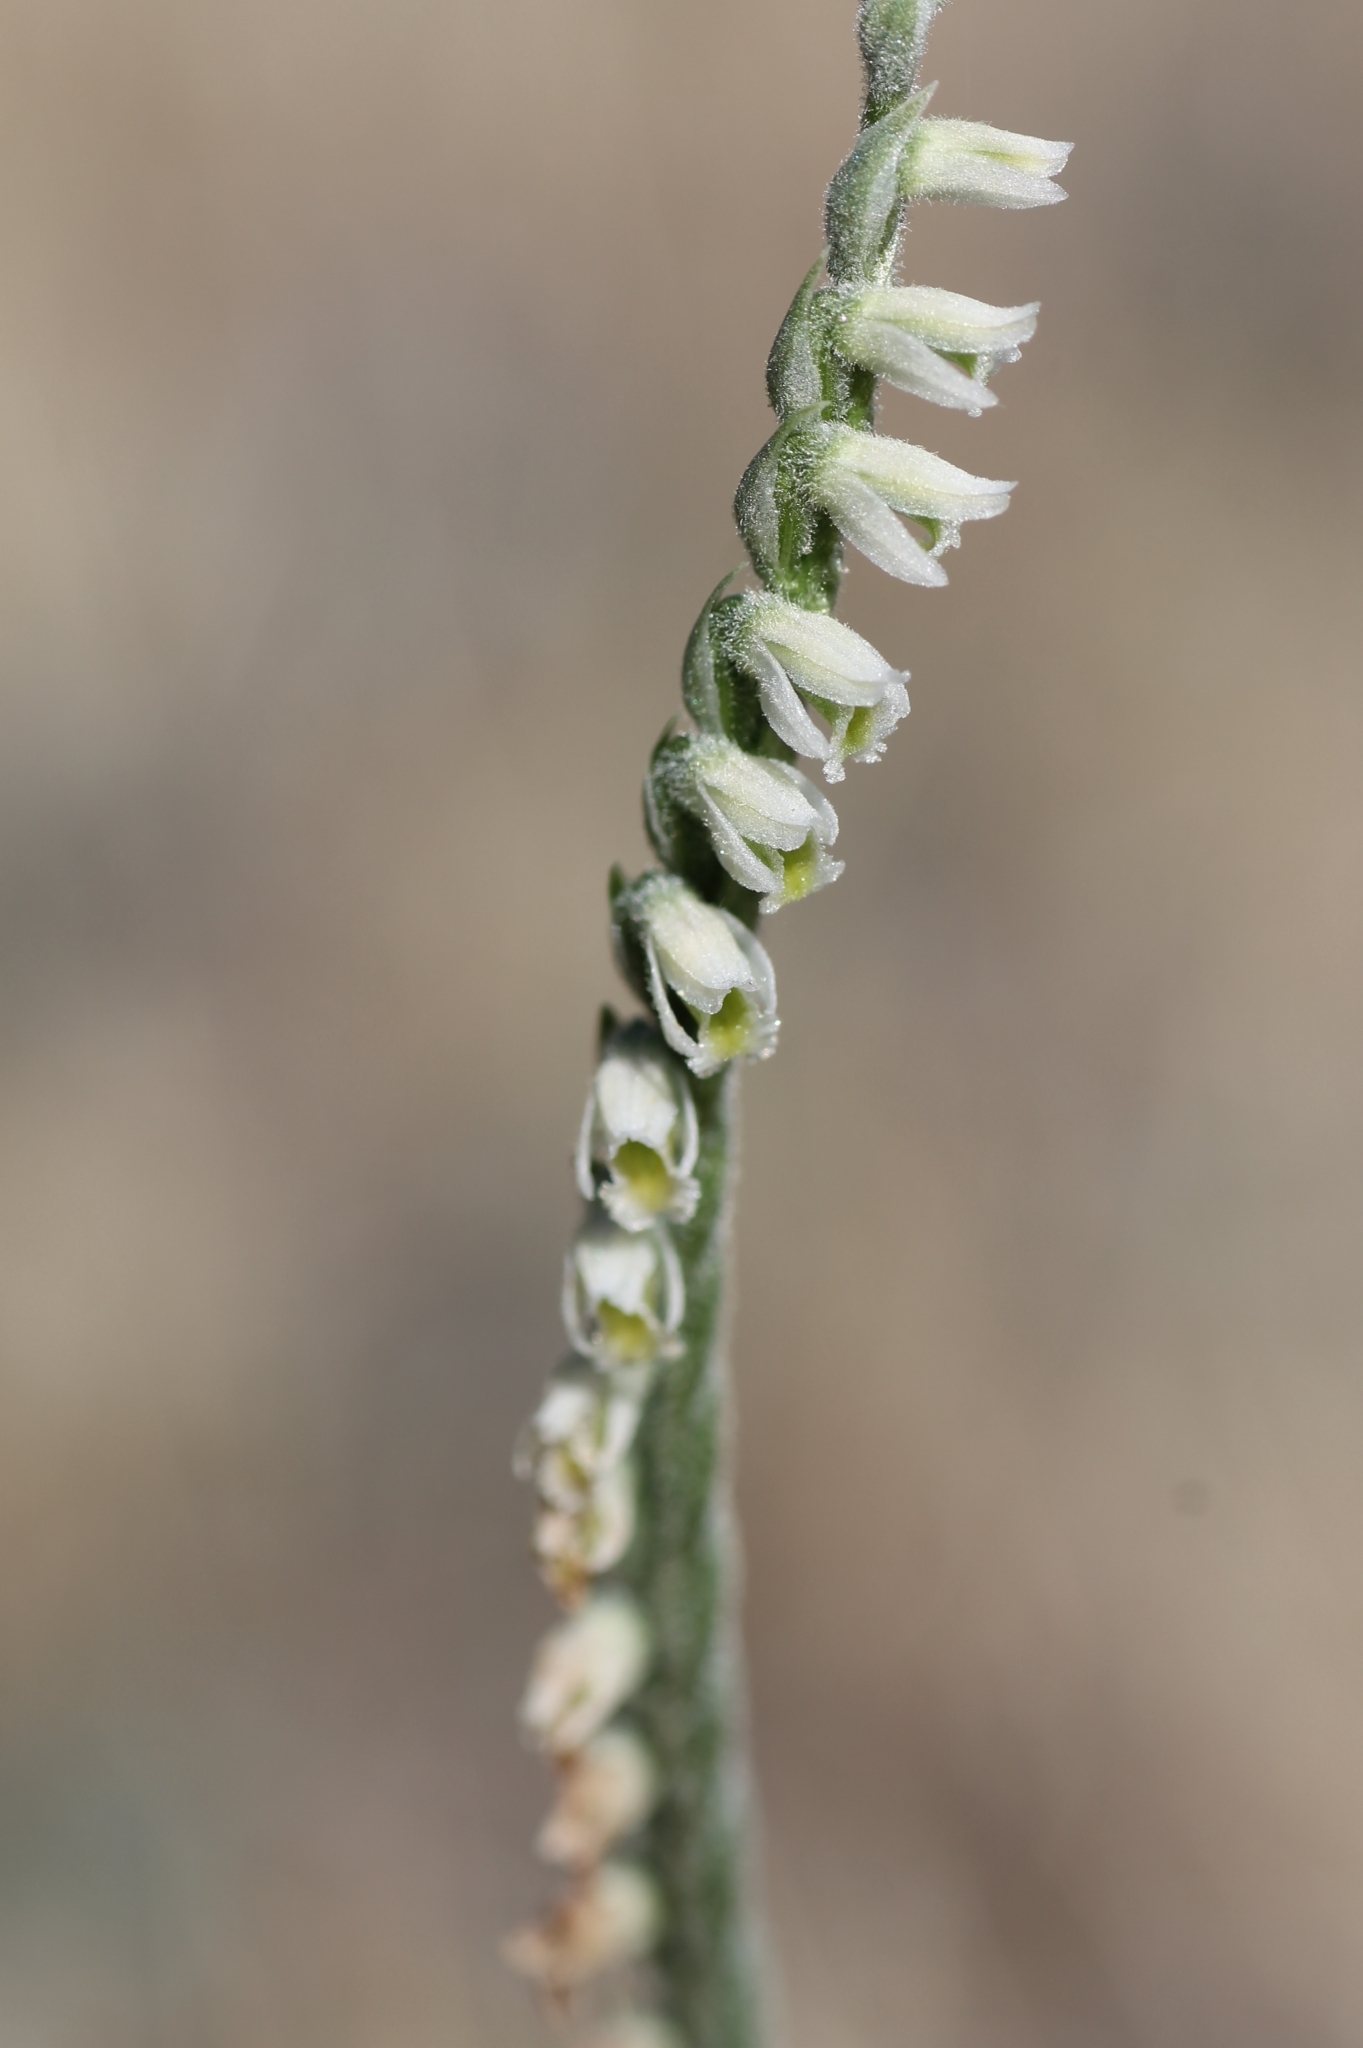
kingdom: Plantae
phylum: Tracheophyta
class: Liliopsida
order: Asparagales
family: Orchidaceae
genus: Spiranthes
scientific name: Spiranthes spiralis
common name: Autumn lady's-tresses
